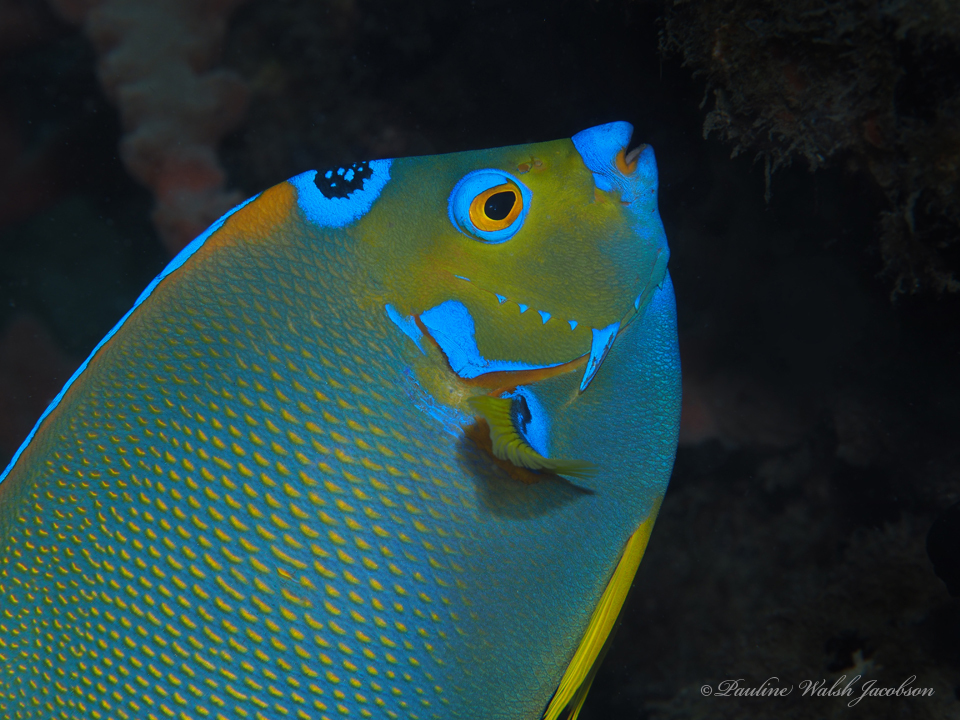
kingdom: Animalia
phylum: Chordata
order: Perciformes
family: Pomacanthidae
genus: Holacanthus
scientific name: Holacanthus ciliaris
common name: Queen angelfish
